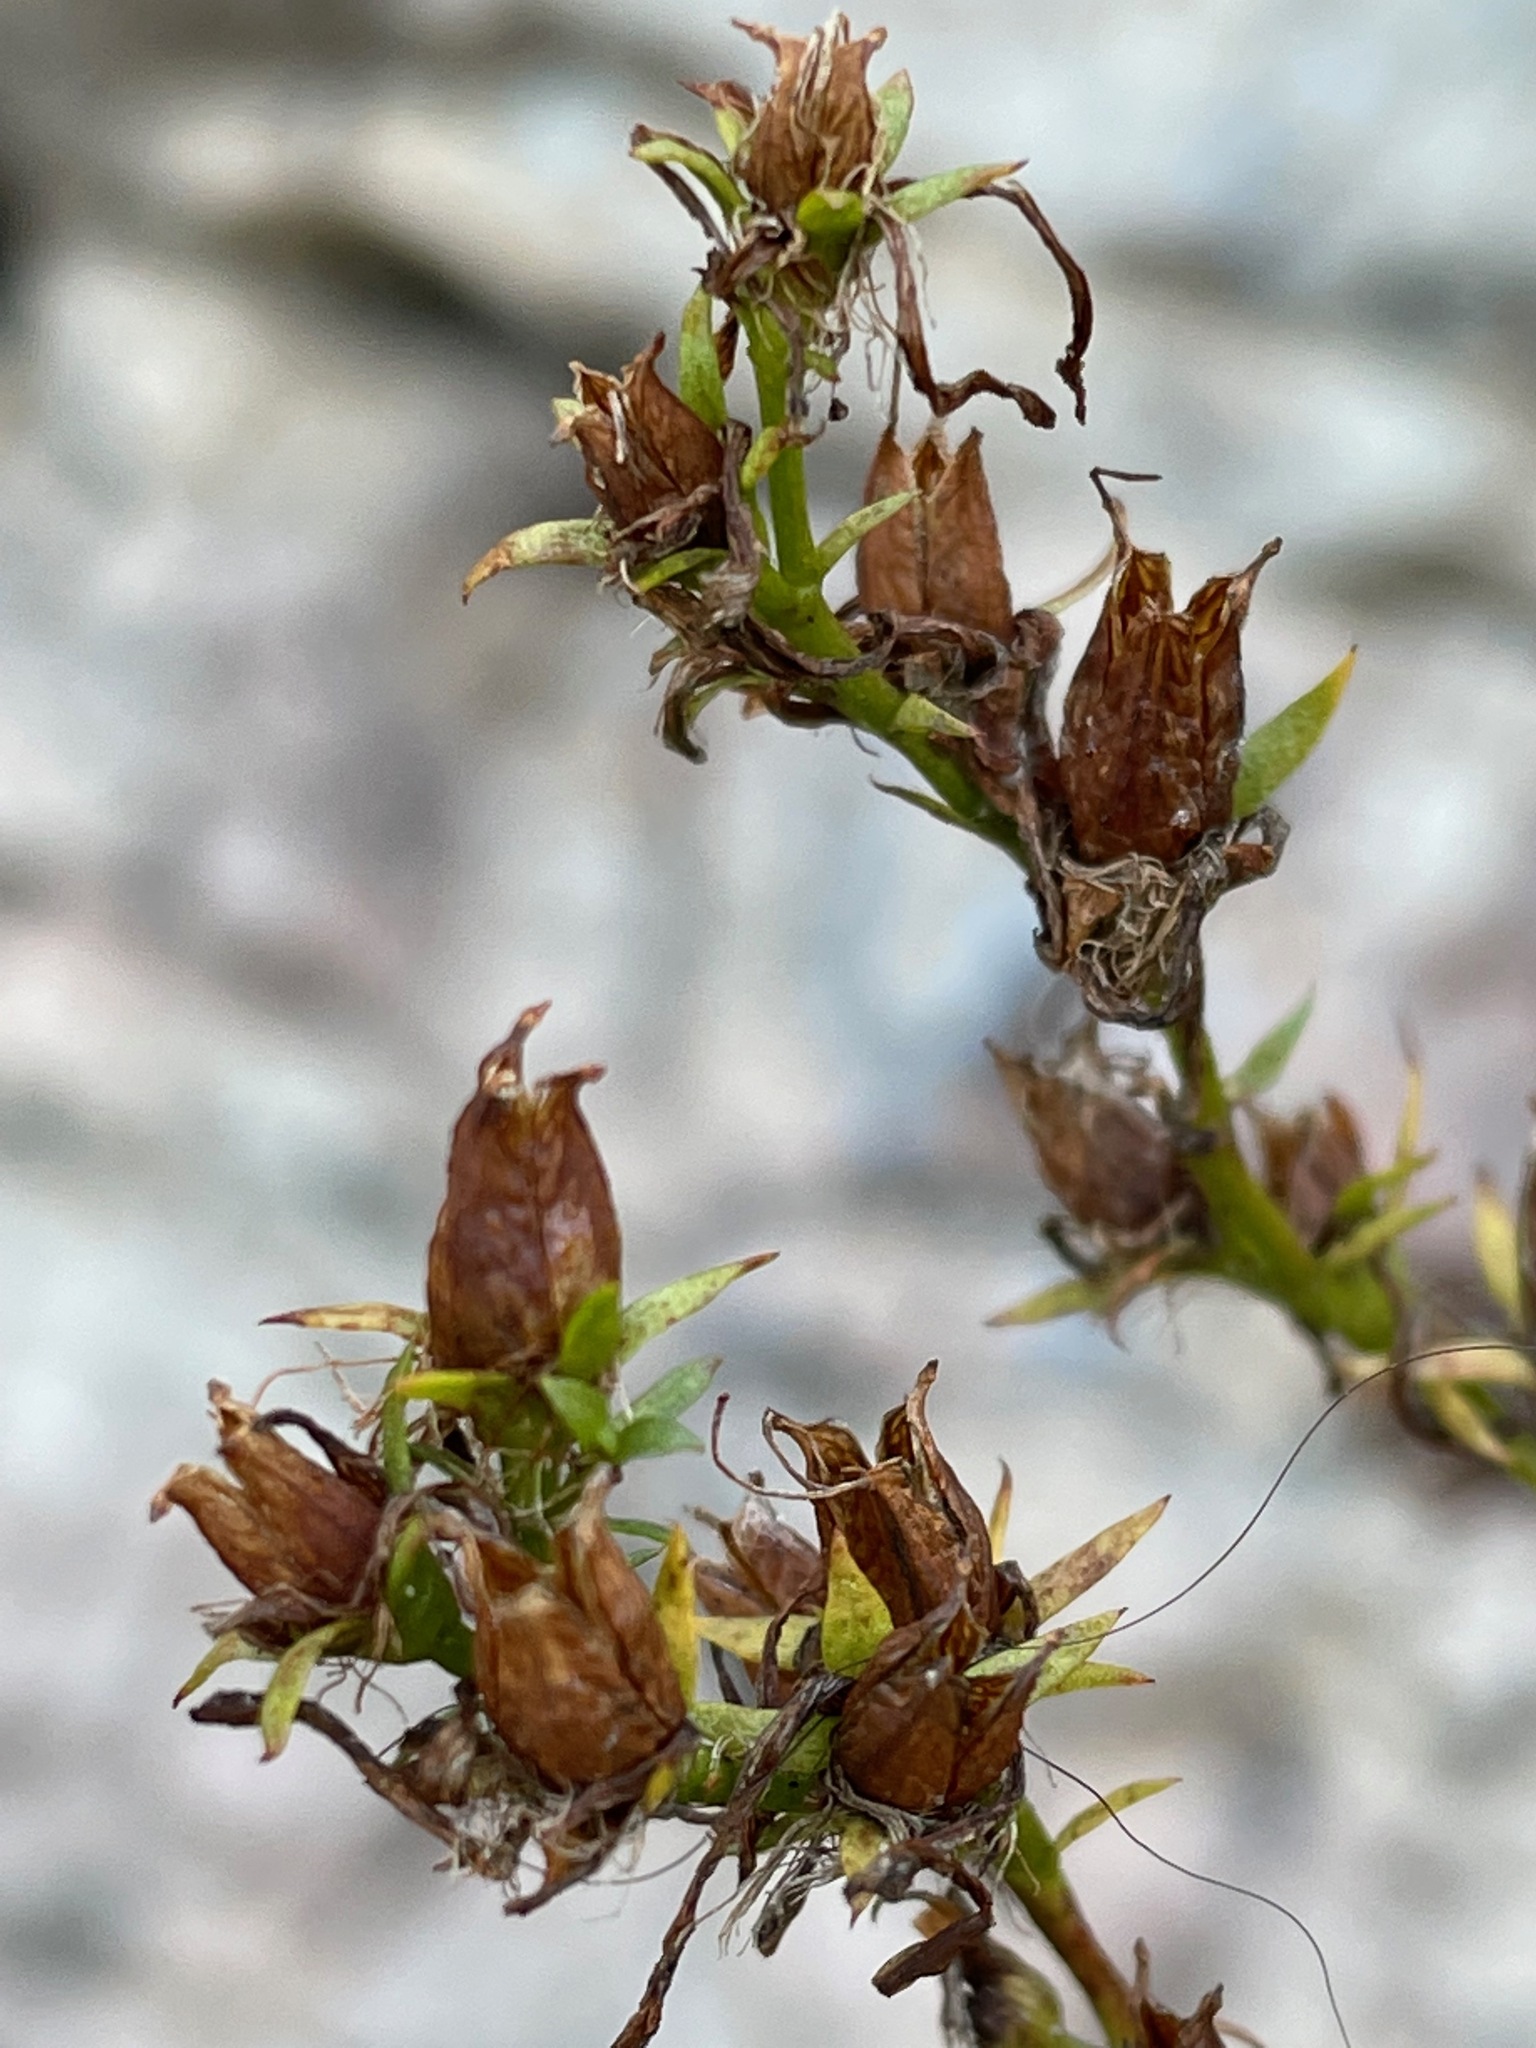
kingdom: Plantae
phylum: Tracheophyta
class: Magnoliopsida
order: Malpighiales
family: Hypericaceae
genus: Hypericum
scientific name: Hypericum perforatum
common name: Common st. johnswort
